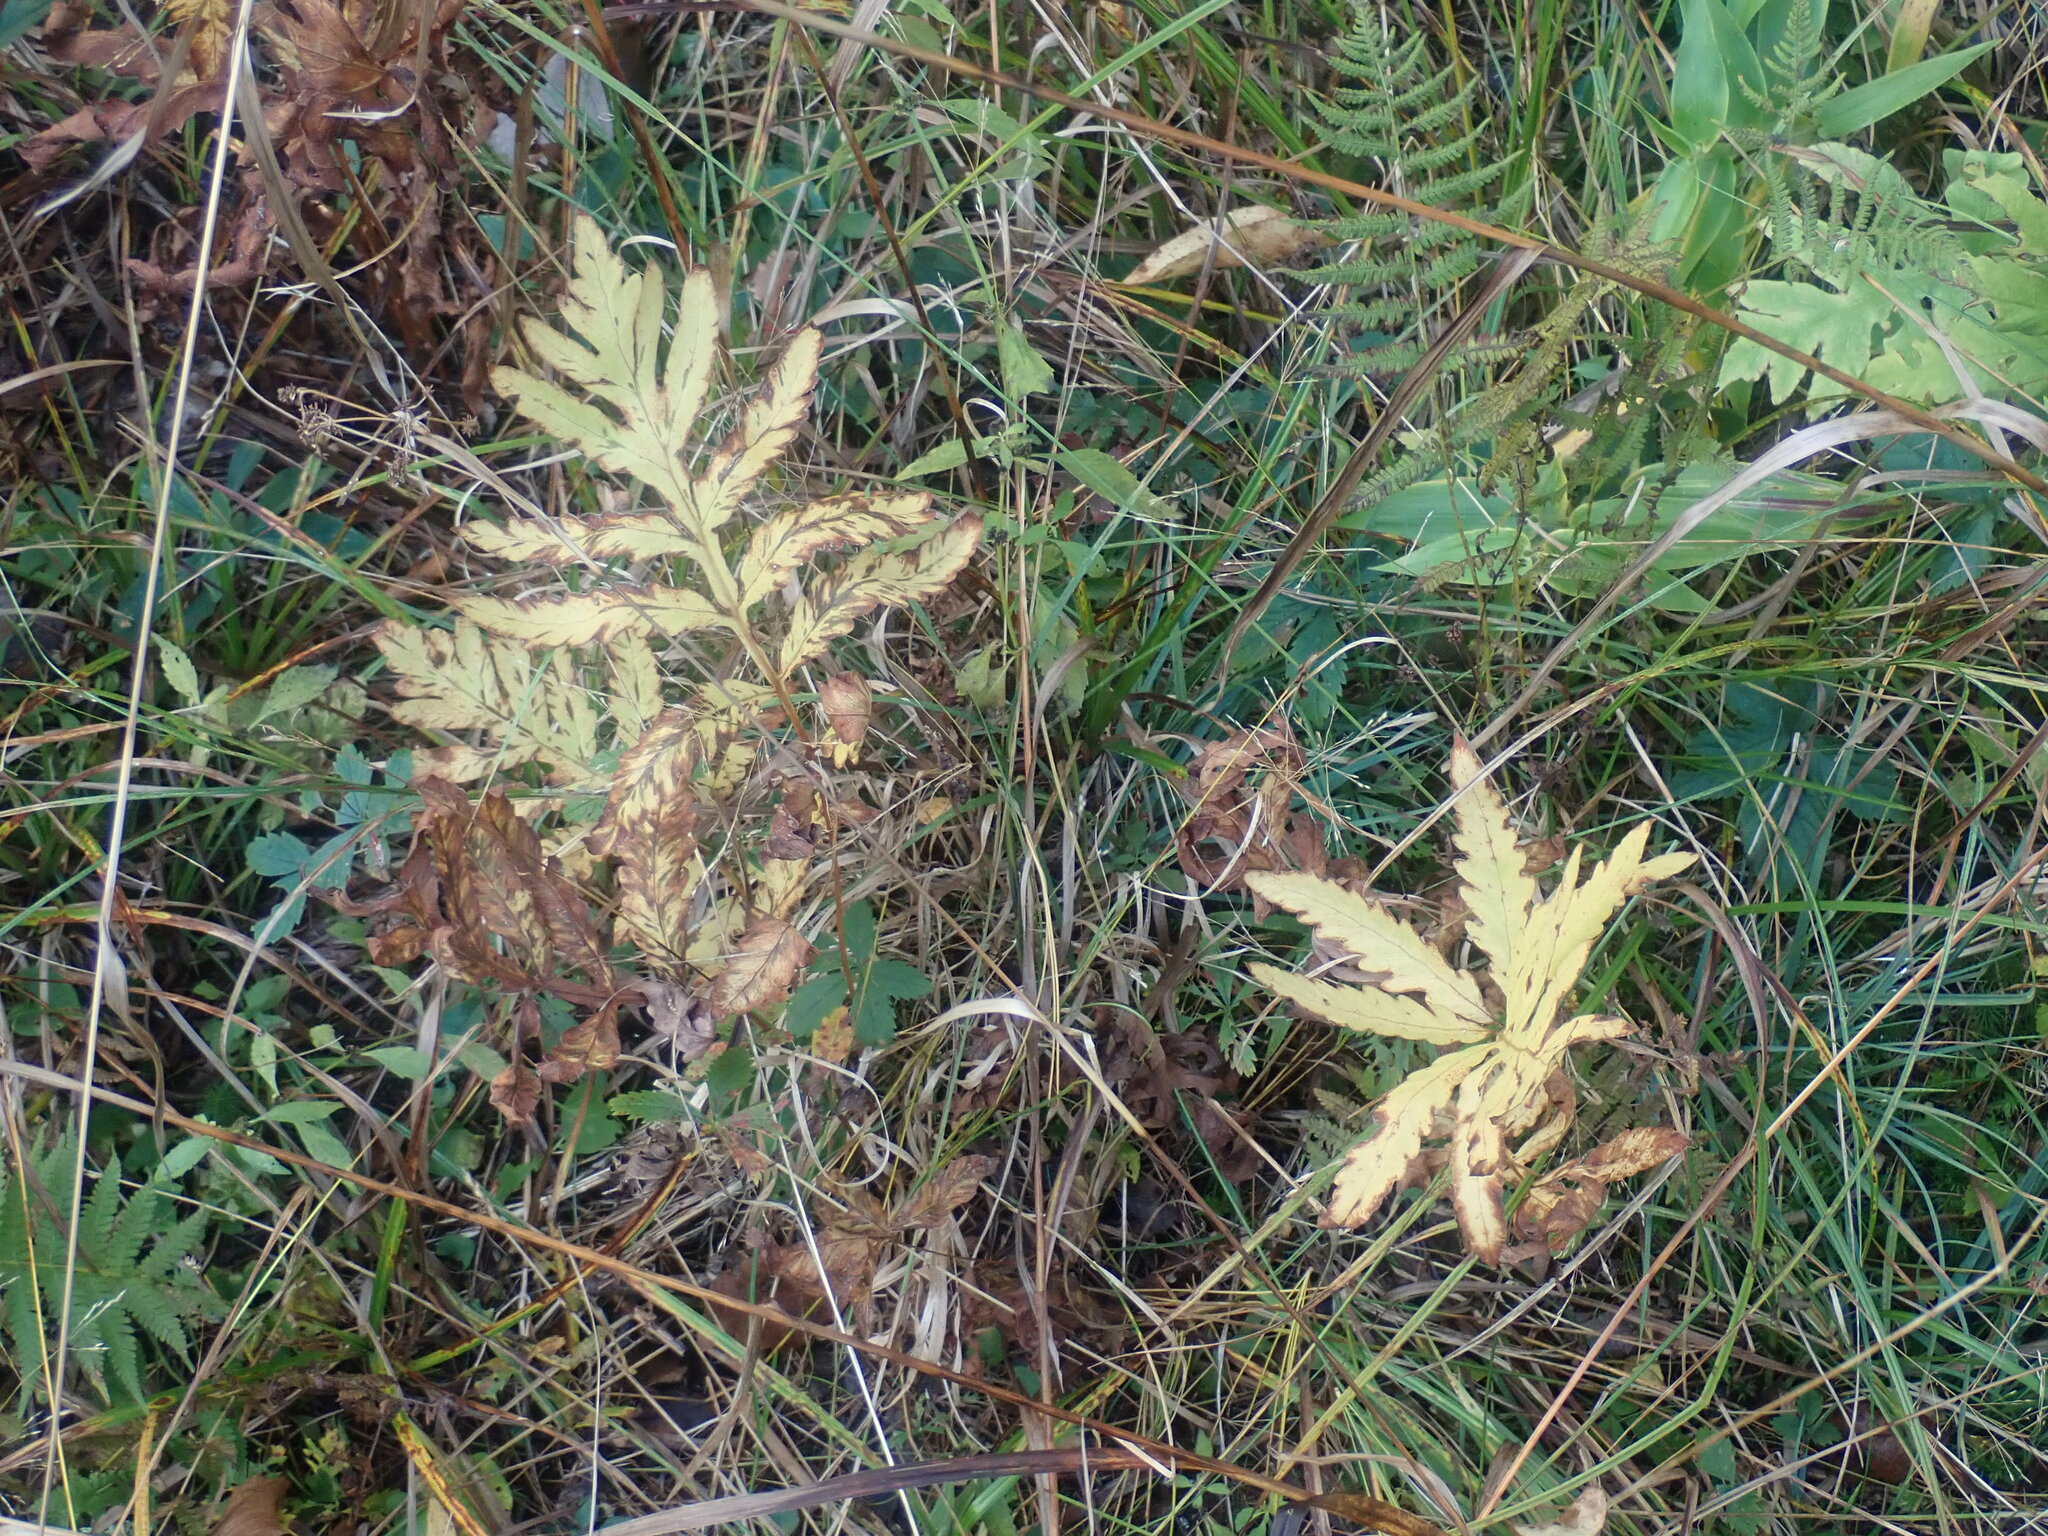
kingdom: Plantae
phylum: Tracheophyta
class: Polypodiopsida
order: Polypodiales
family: Onocleaceae
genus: Onoclea
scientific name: Onoclea sensibilis
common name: Sensitive fern
